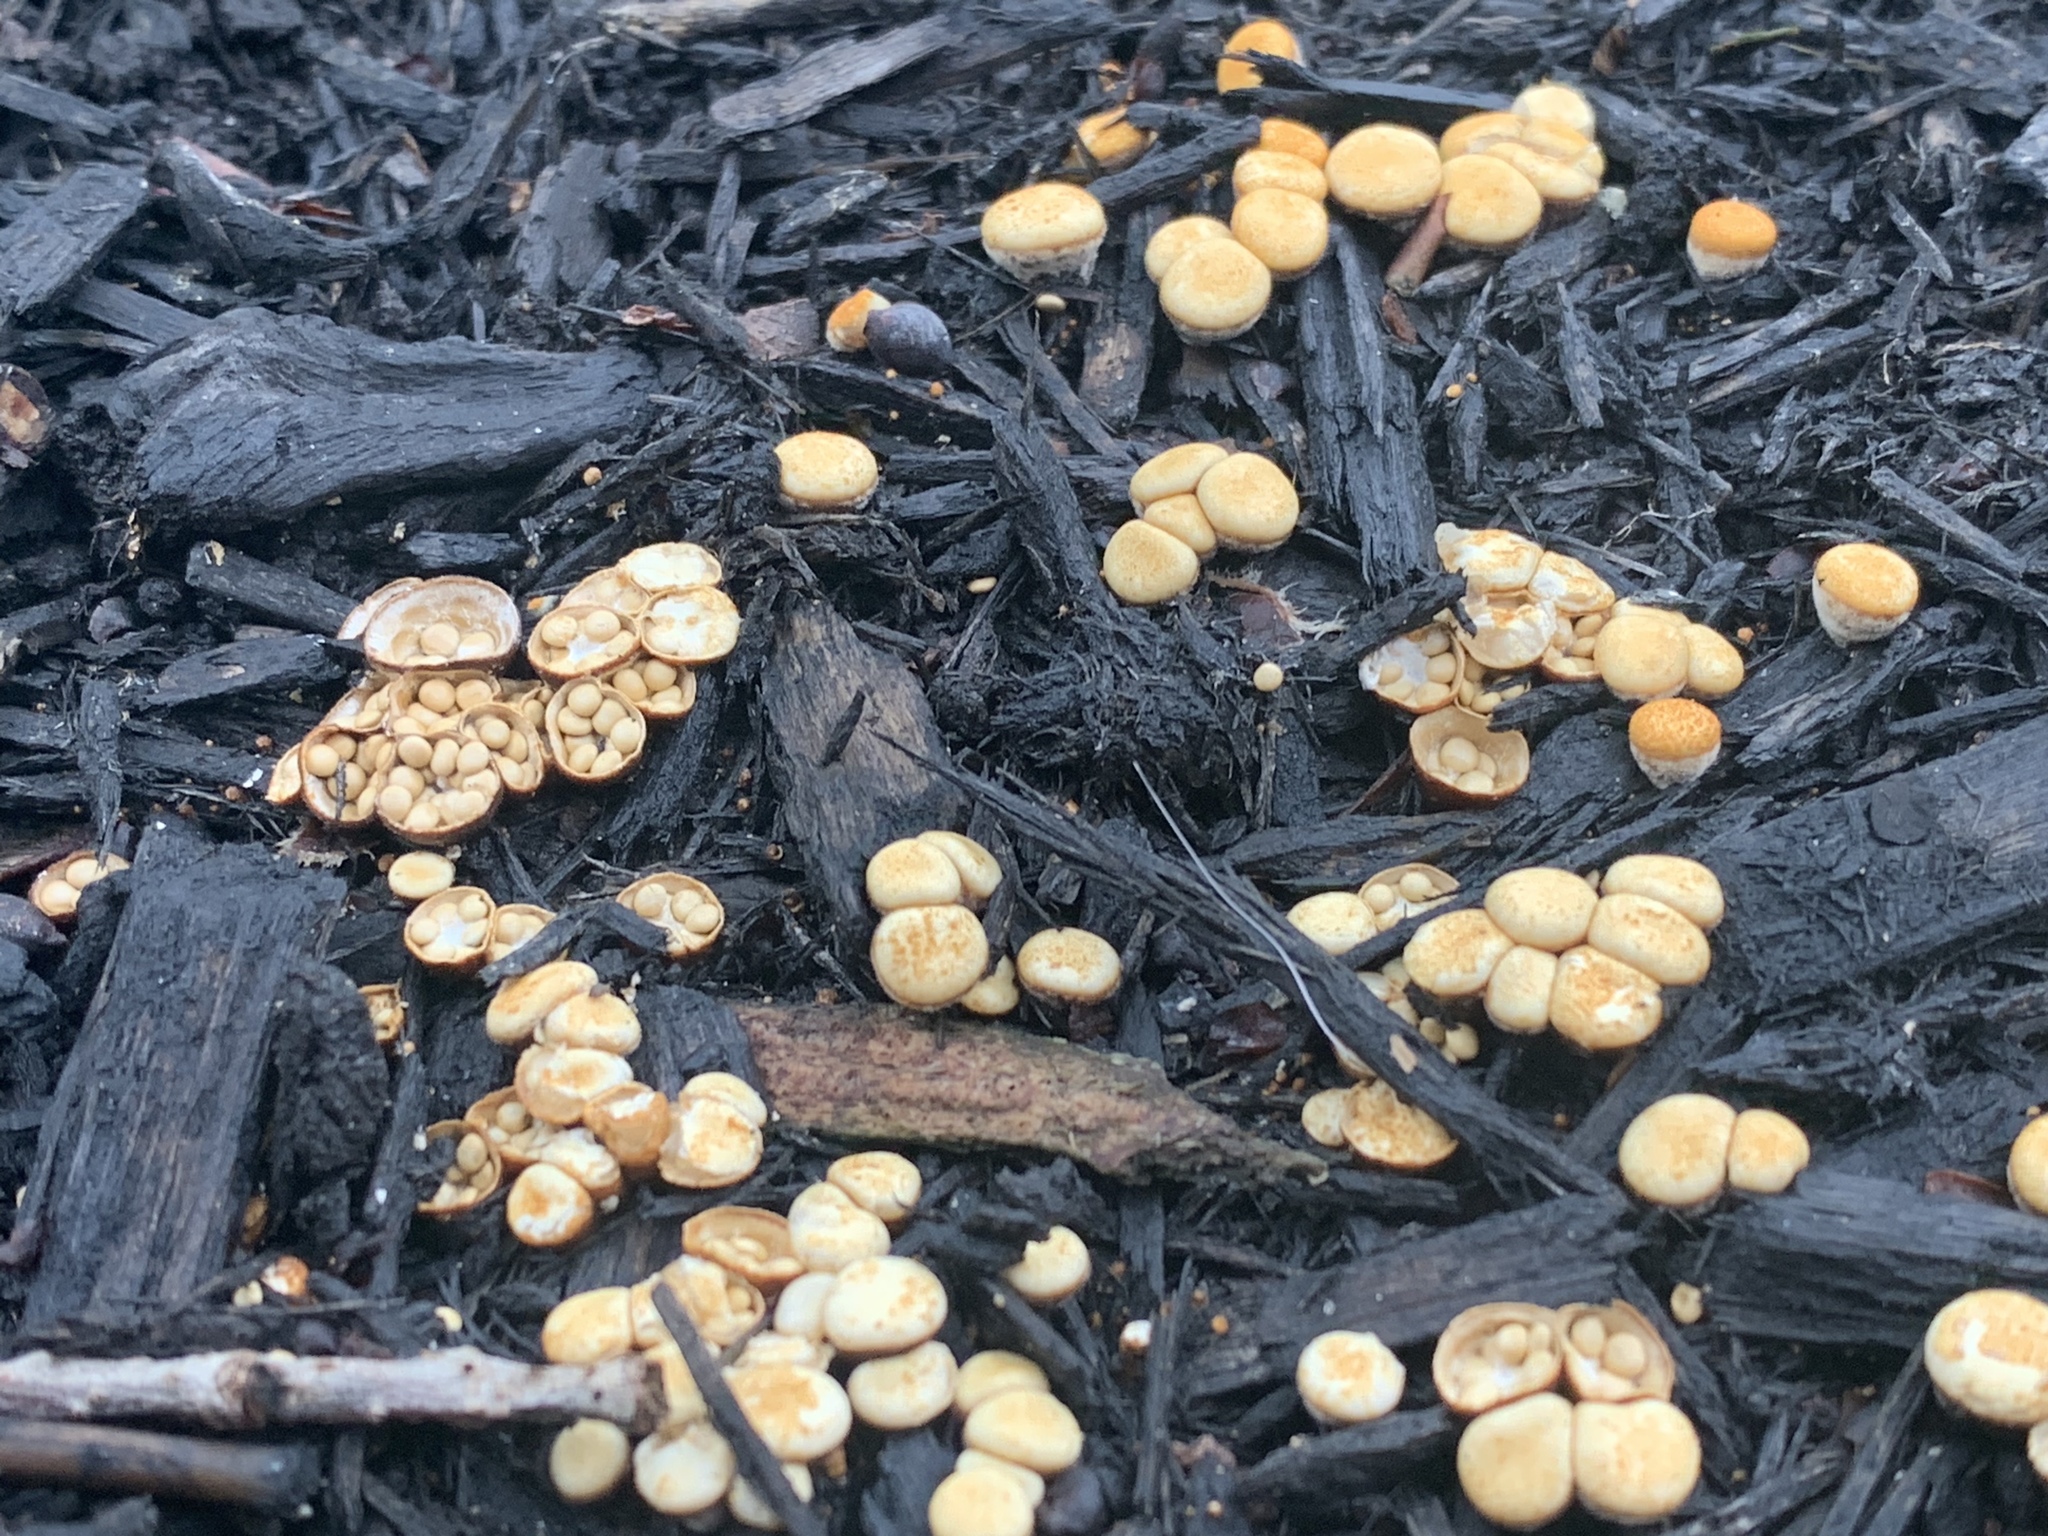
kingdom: Fungi
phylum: Basidiomycota
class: Agaricomycetes
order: Agaricales
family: Nidulariaceae
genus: Crucibulum
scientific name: Crucibulum laeve
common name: Common bird's nest
